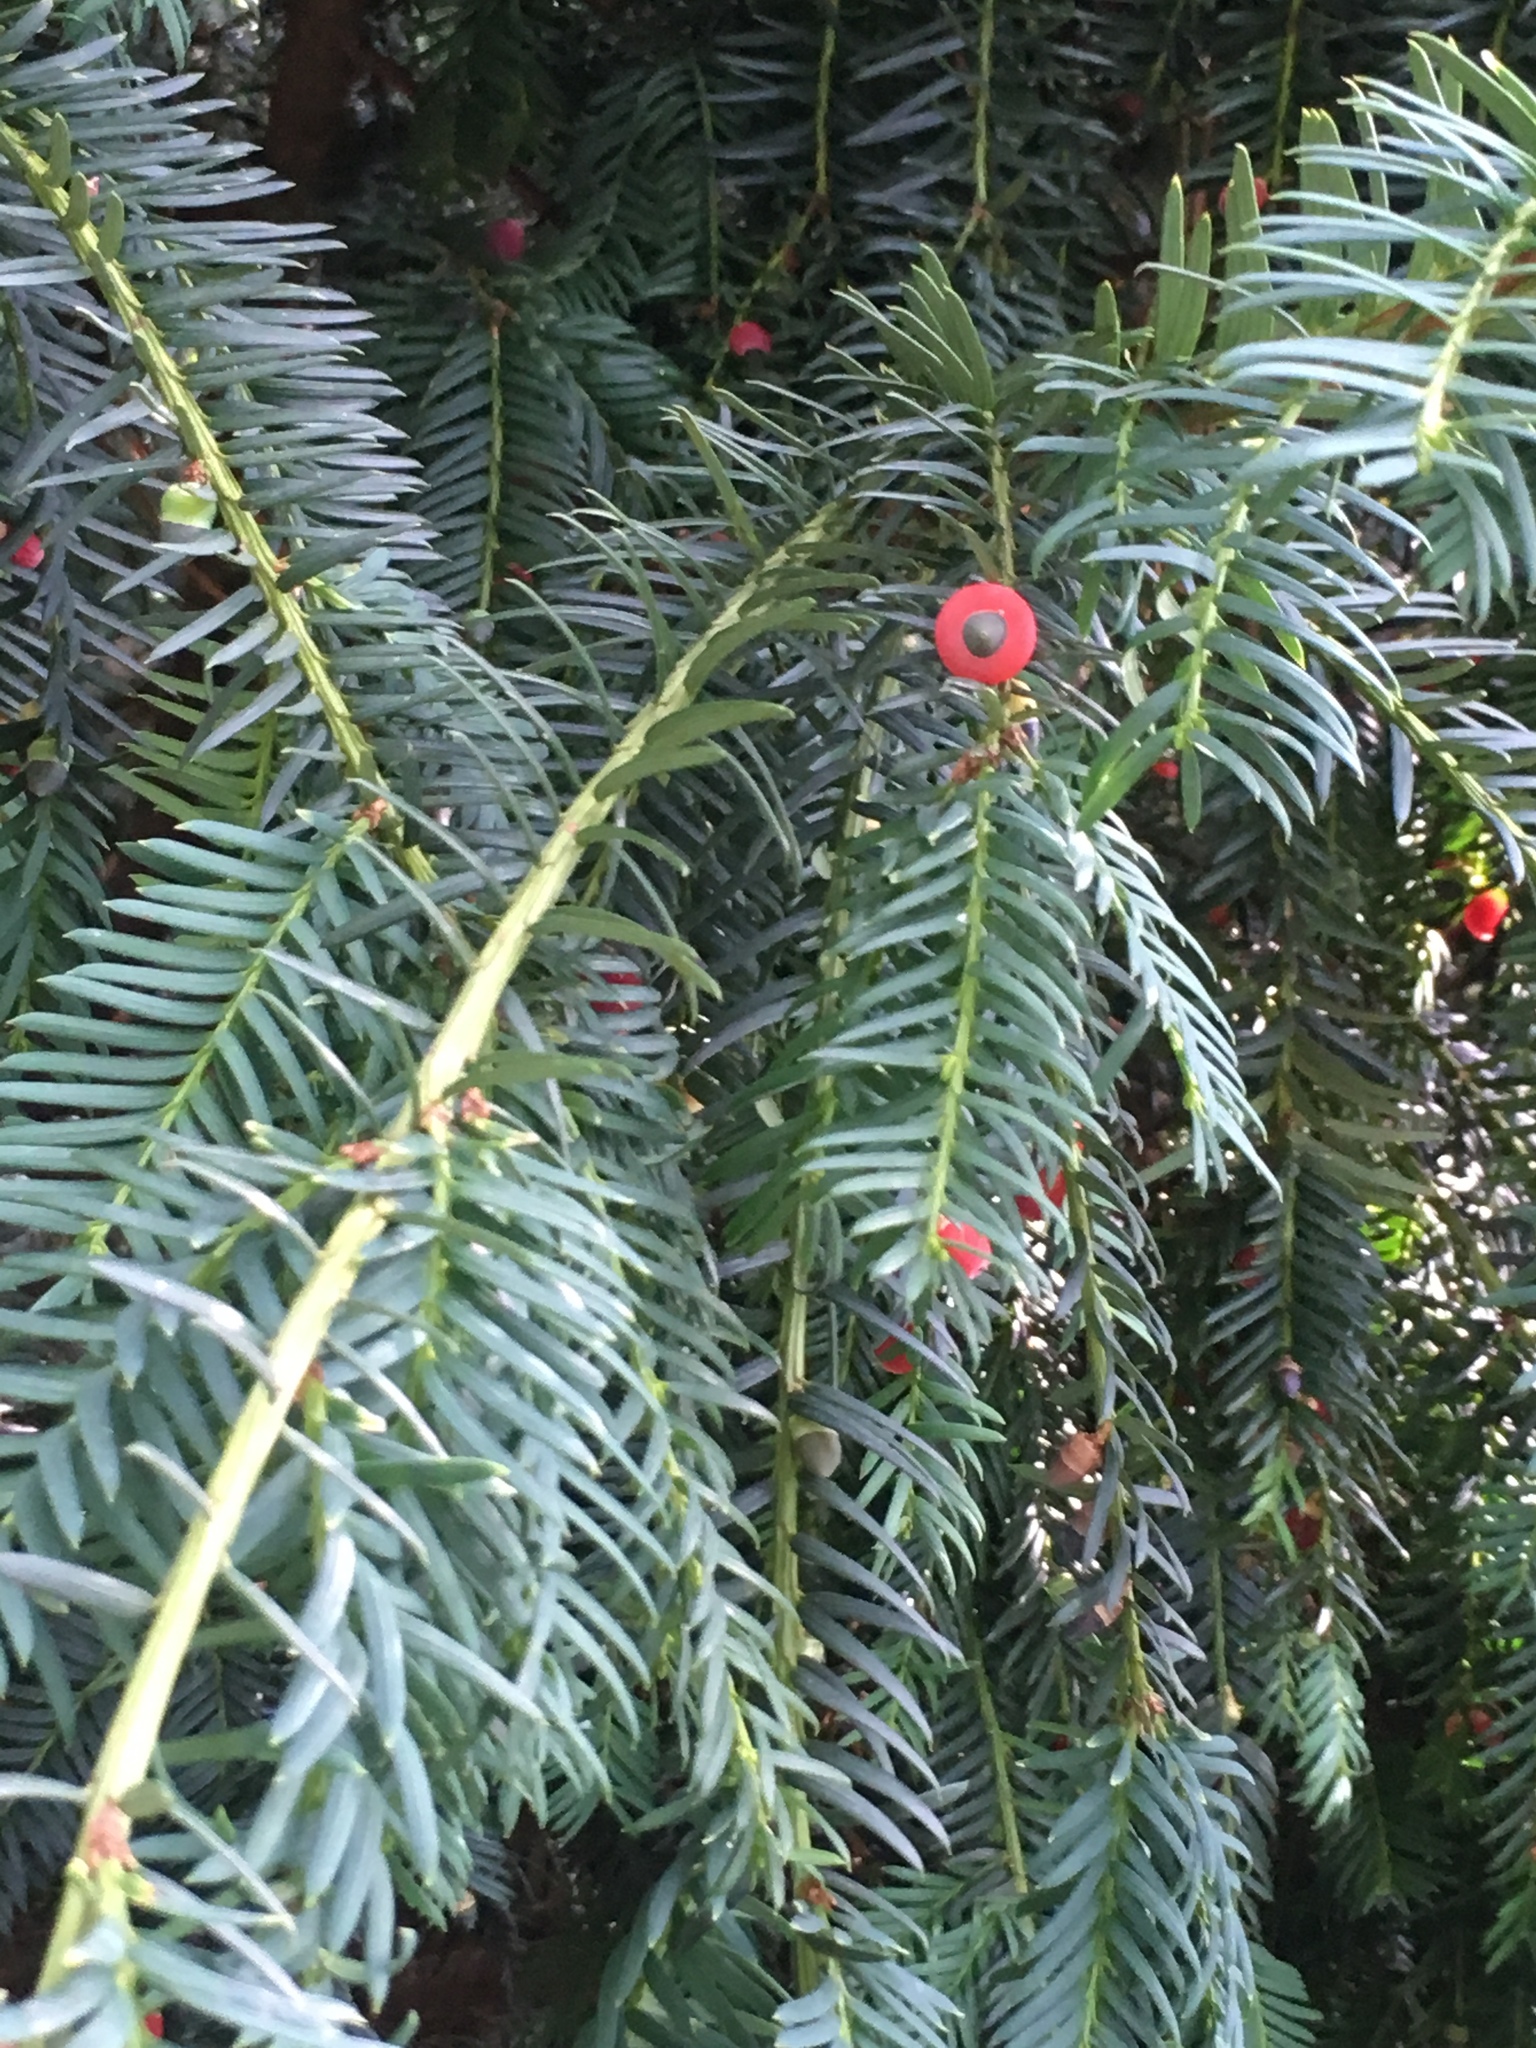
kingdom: Plantae
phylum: Tracheophyta
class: Pinopsida
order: Pinales
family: Taxaceae
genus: Taxus
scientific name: Taxus baccata
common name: Yew
